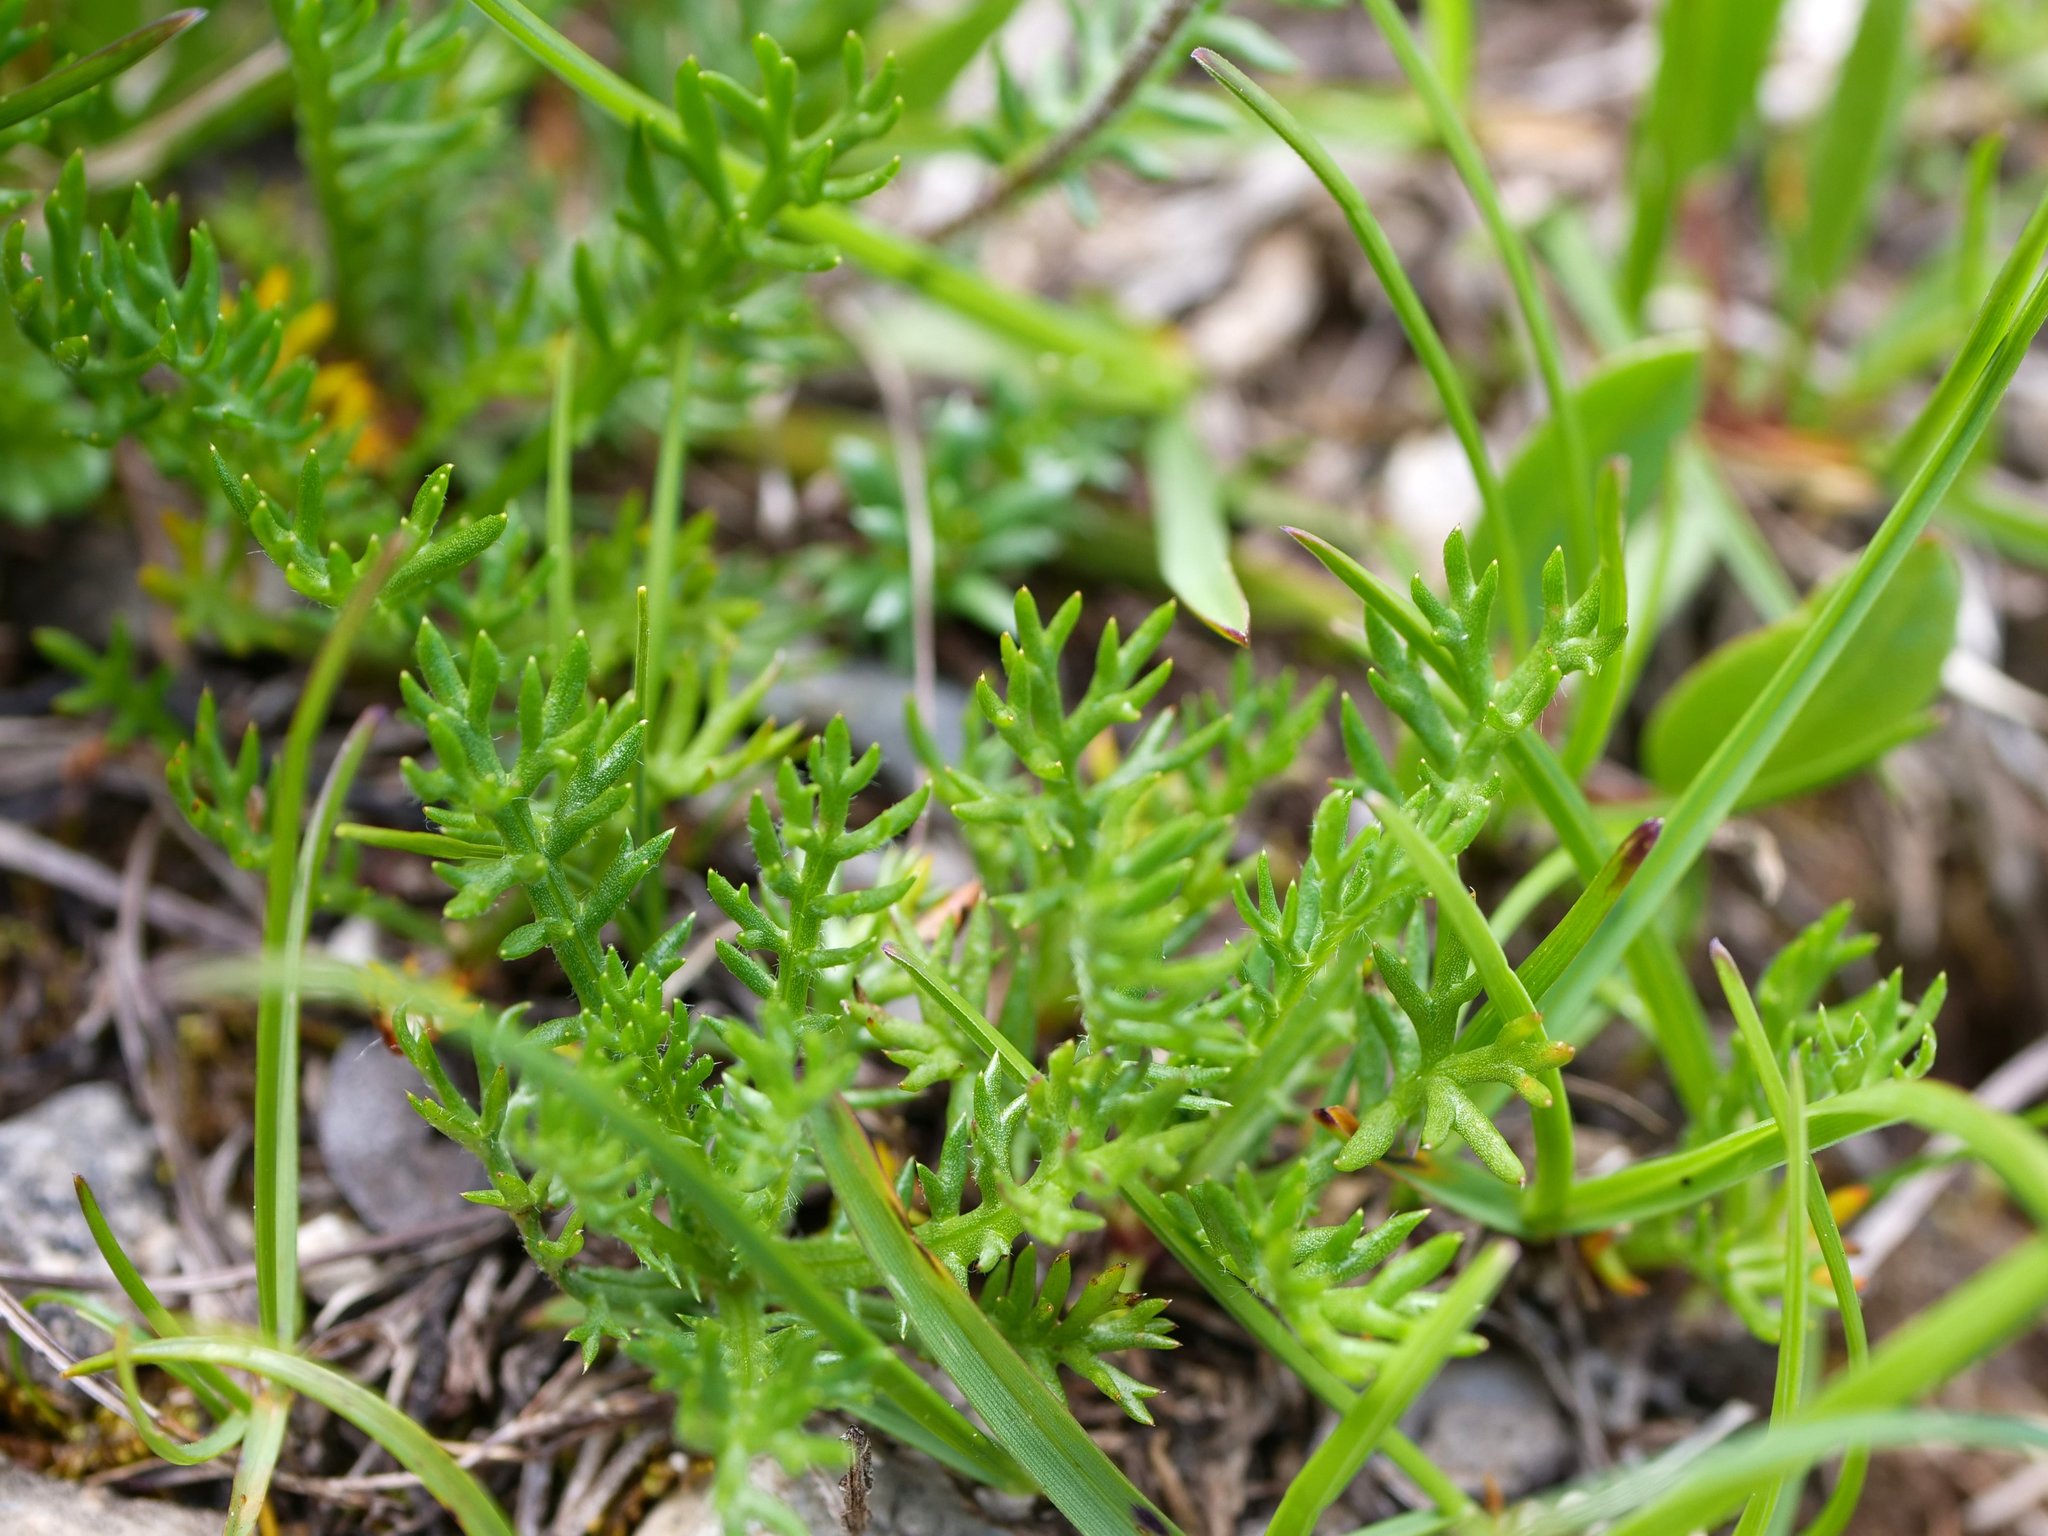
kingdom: Plantae
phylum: Tracheophyta
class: Magnoliopsida
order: Asterales
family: Asteraceae
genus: Achillea
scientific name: Achillea atrata
